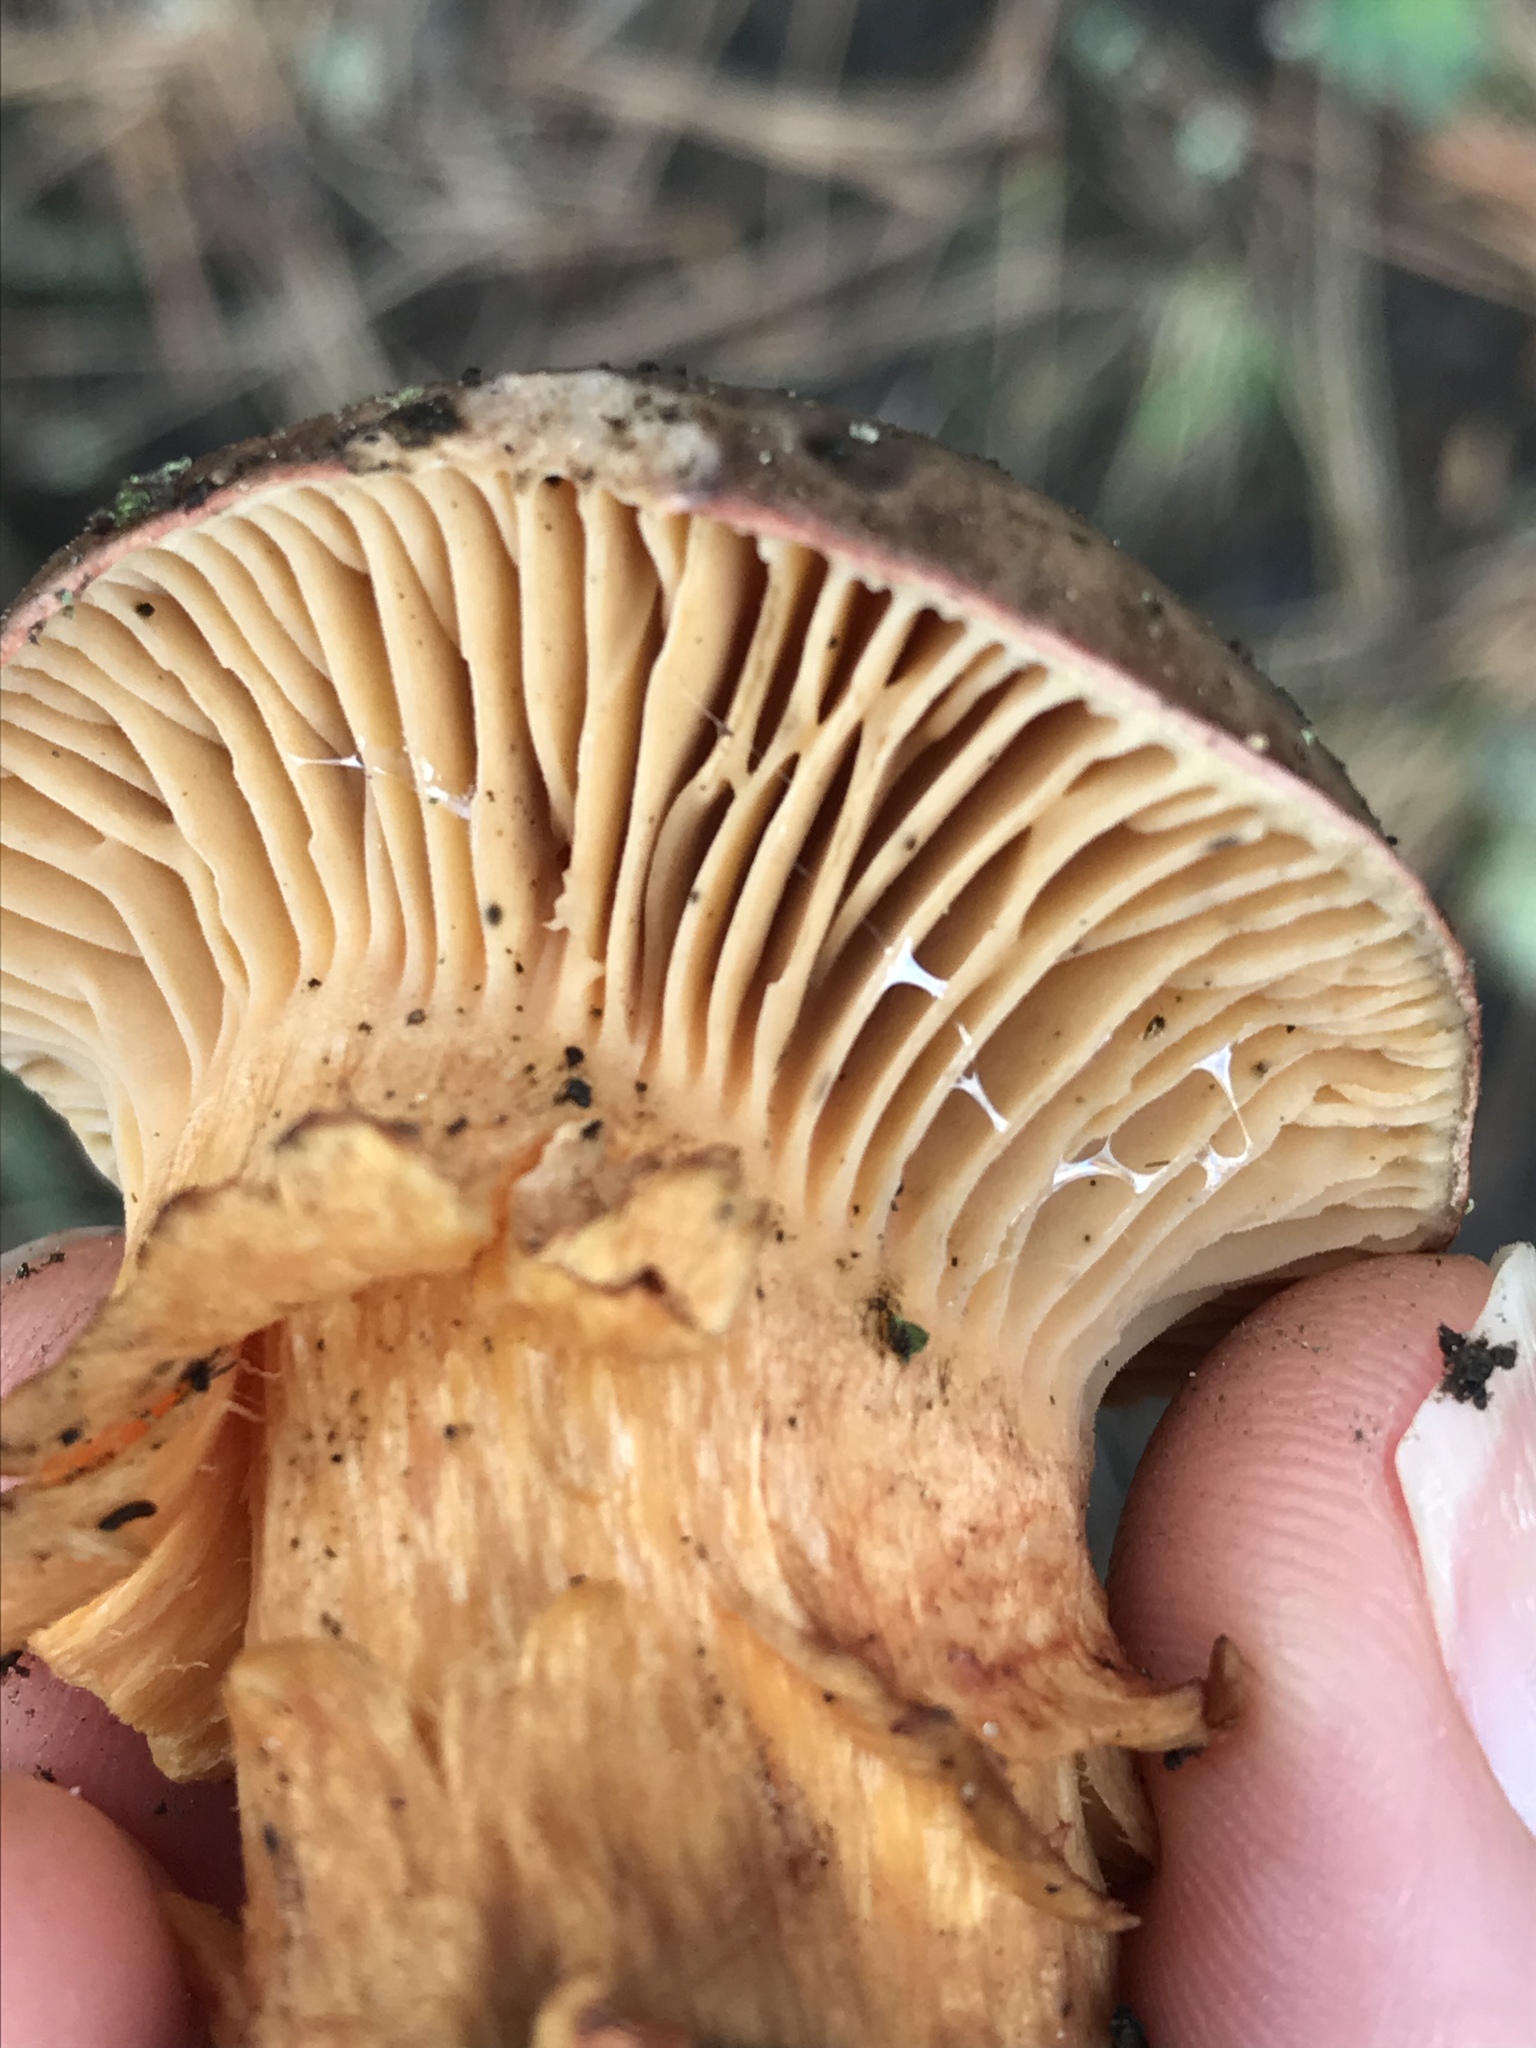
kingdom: Fungi
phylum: Basidiomycota
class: Agaricomycetes
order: Boletales
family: Gomphidiaceae
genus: Chroogomphus
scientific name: Chroogomphus vinicolor
